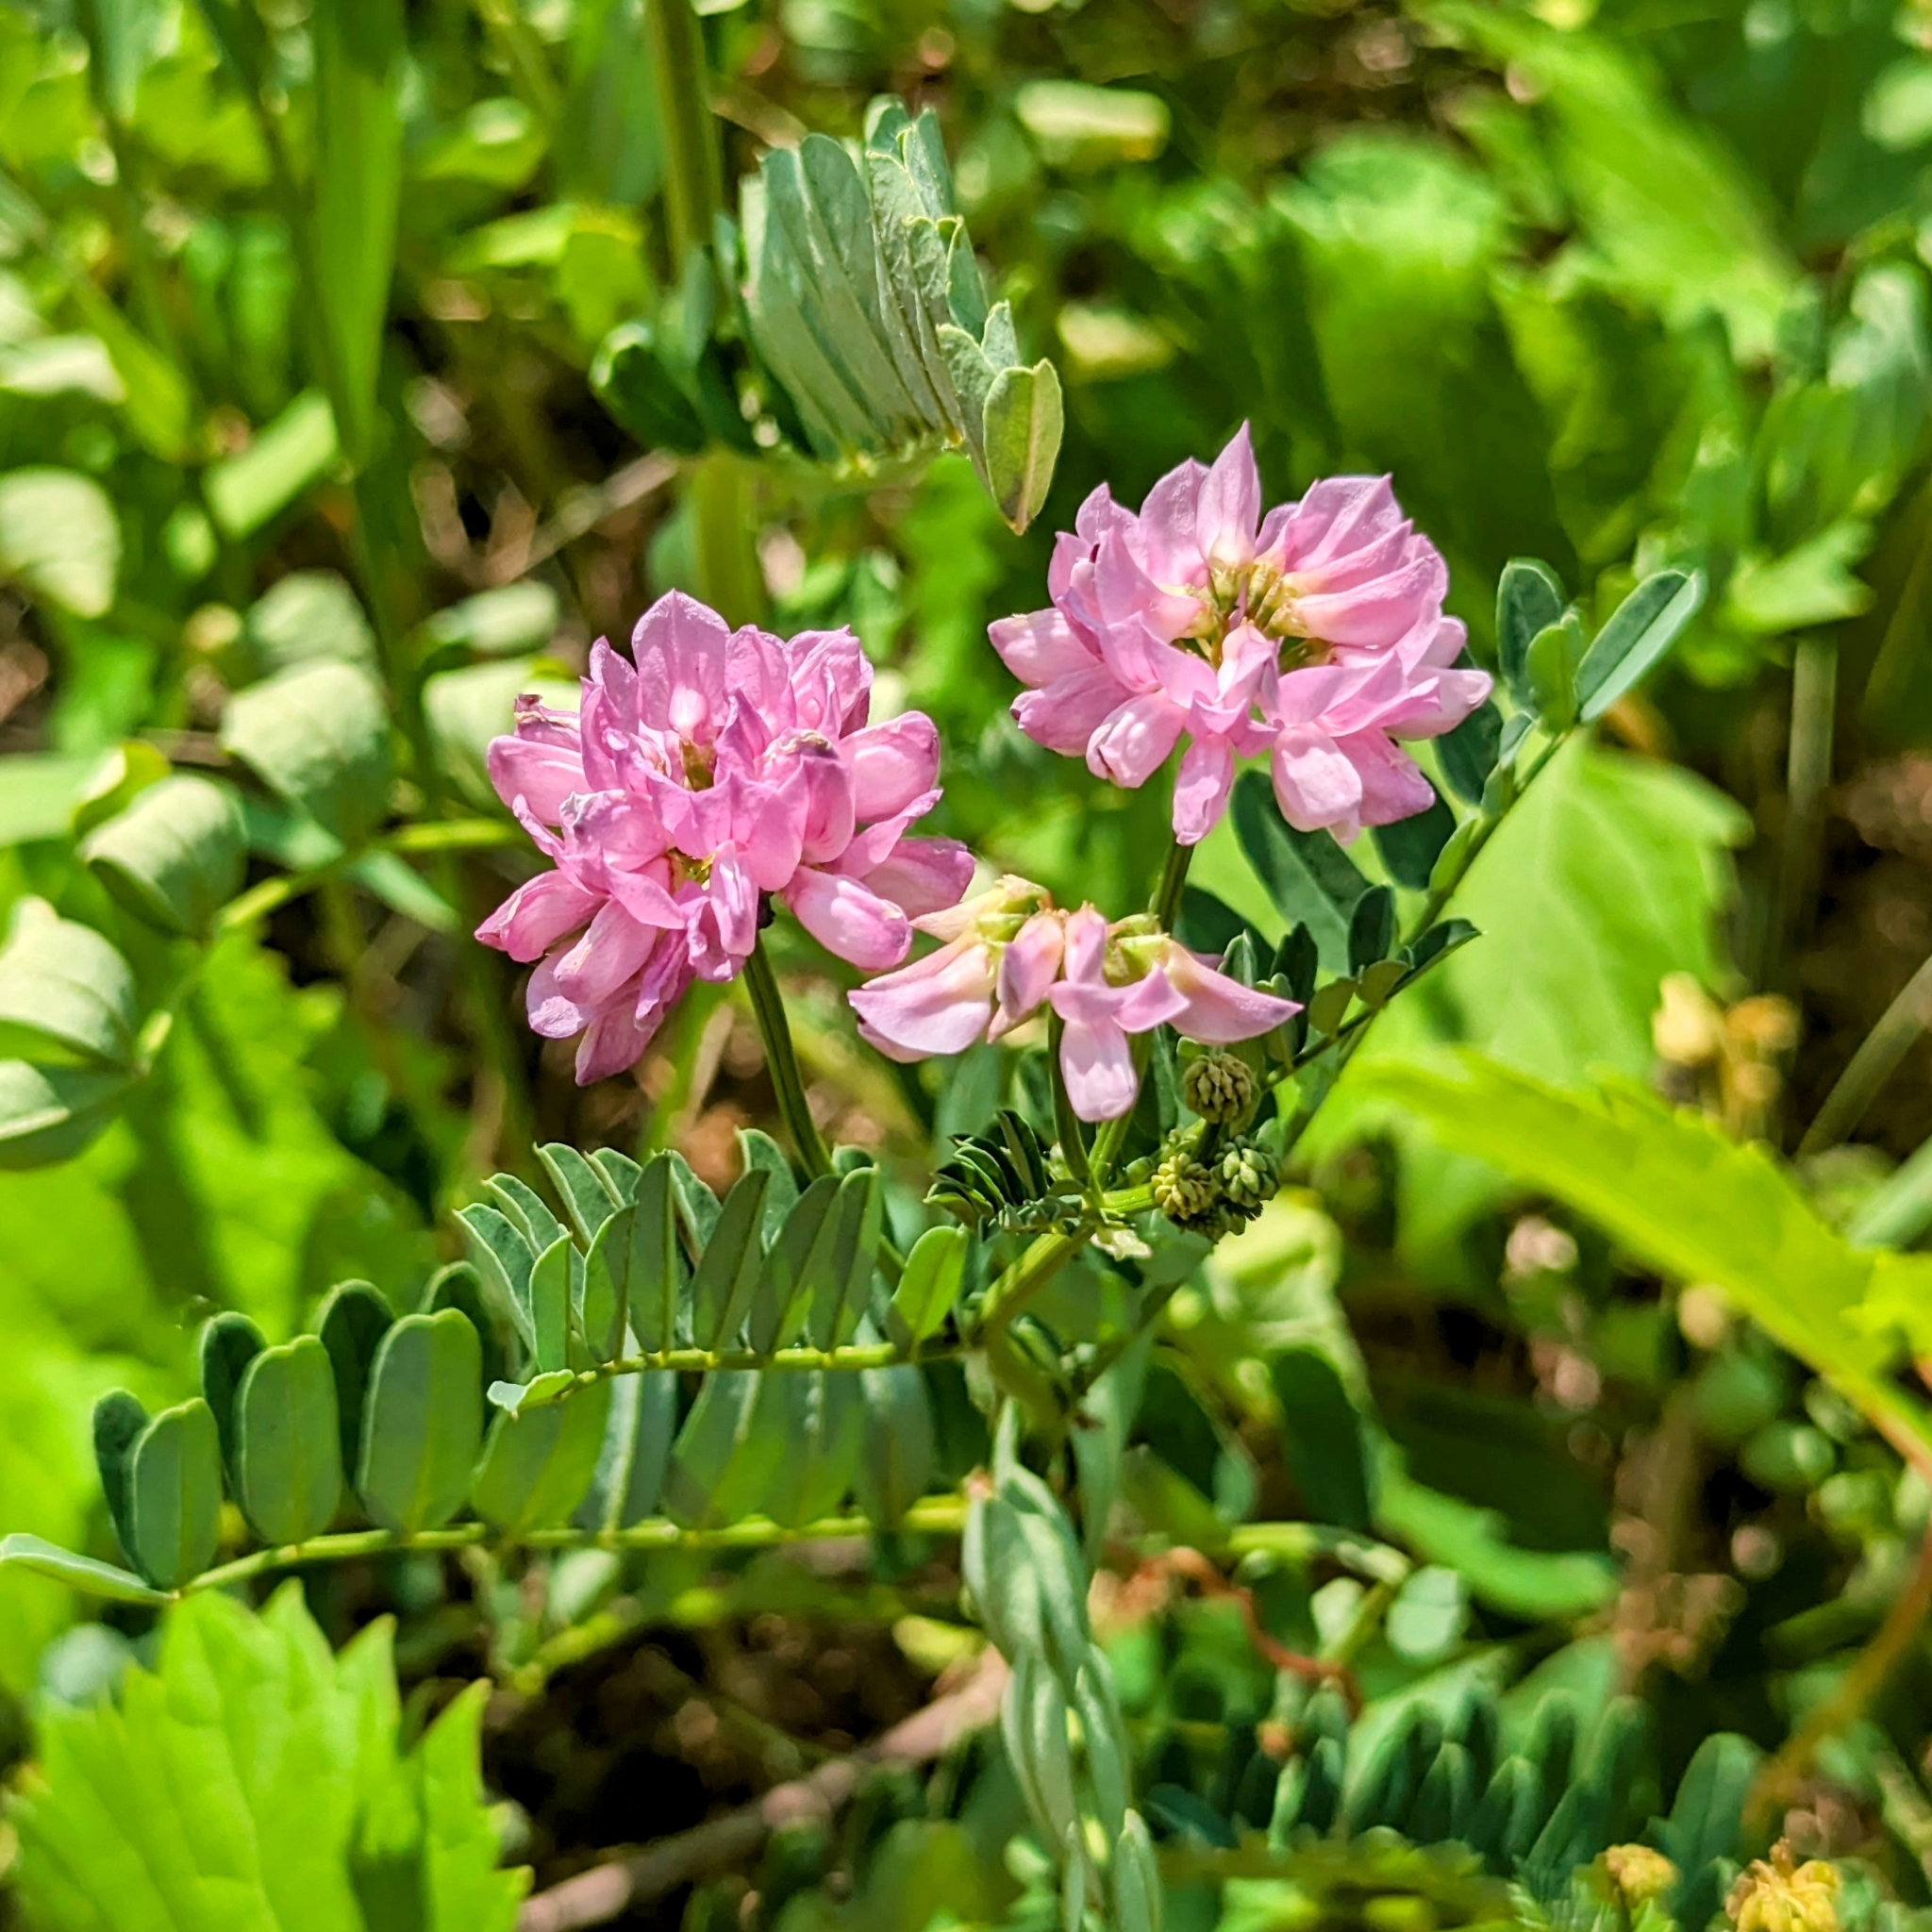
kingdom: Plantae
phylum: Tracheophyta
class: Magnoliopsida
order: Fabales
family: Fabaceae
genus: Coronilla
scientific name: Coronilla varia
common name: Crownvetch
